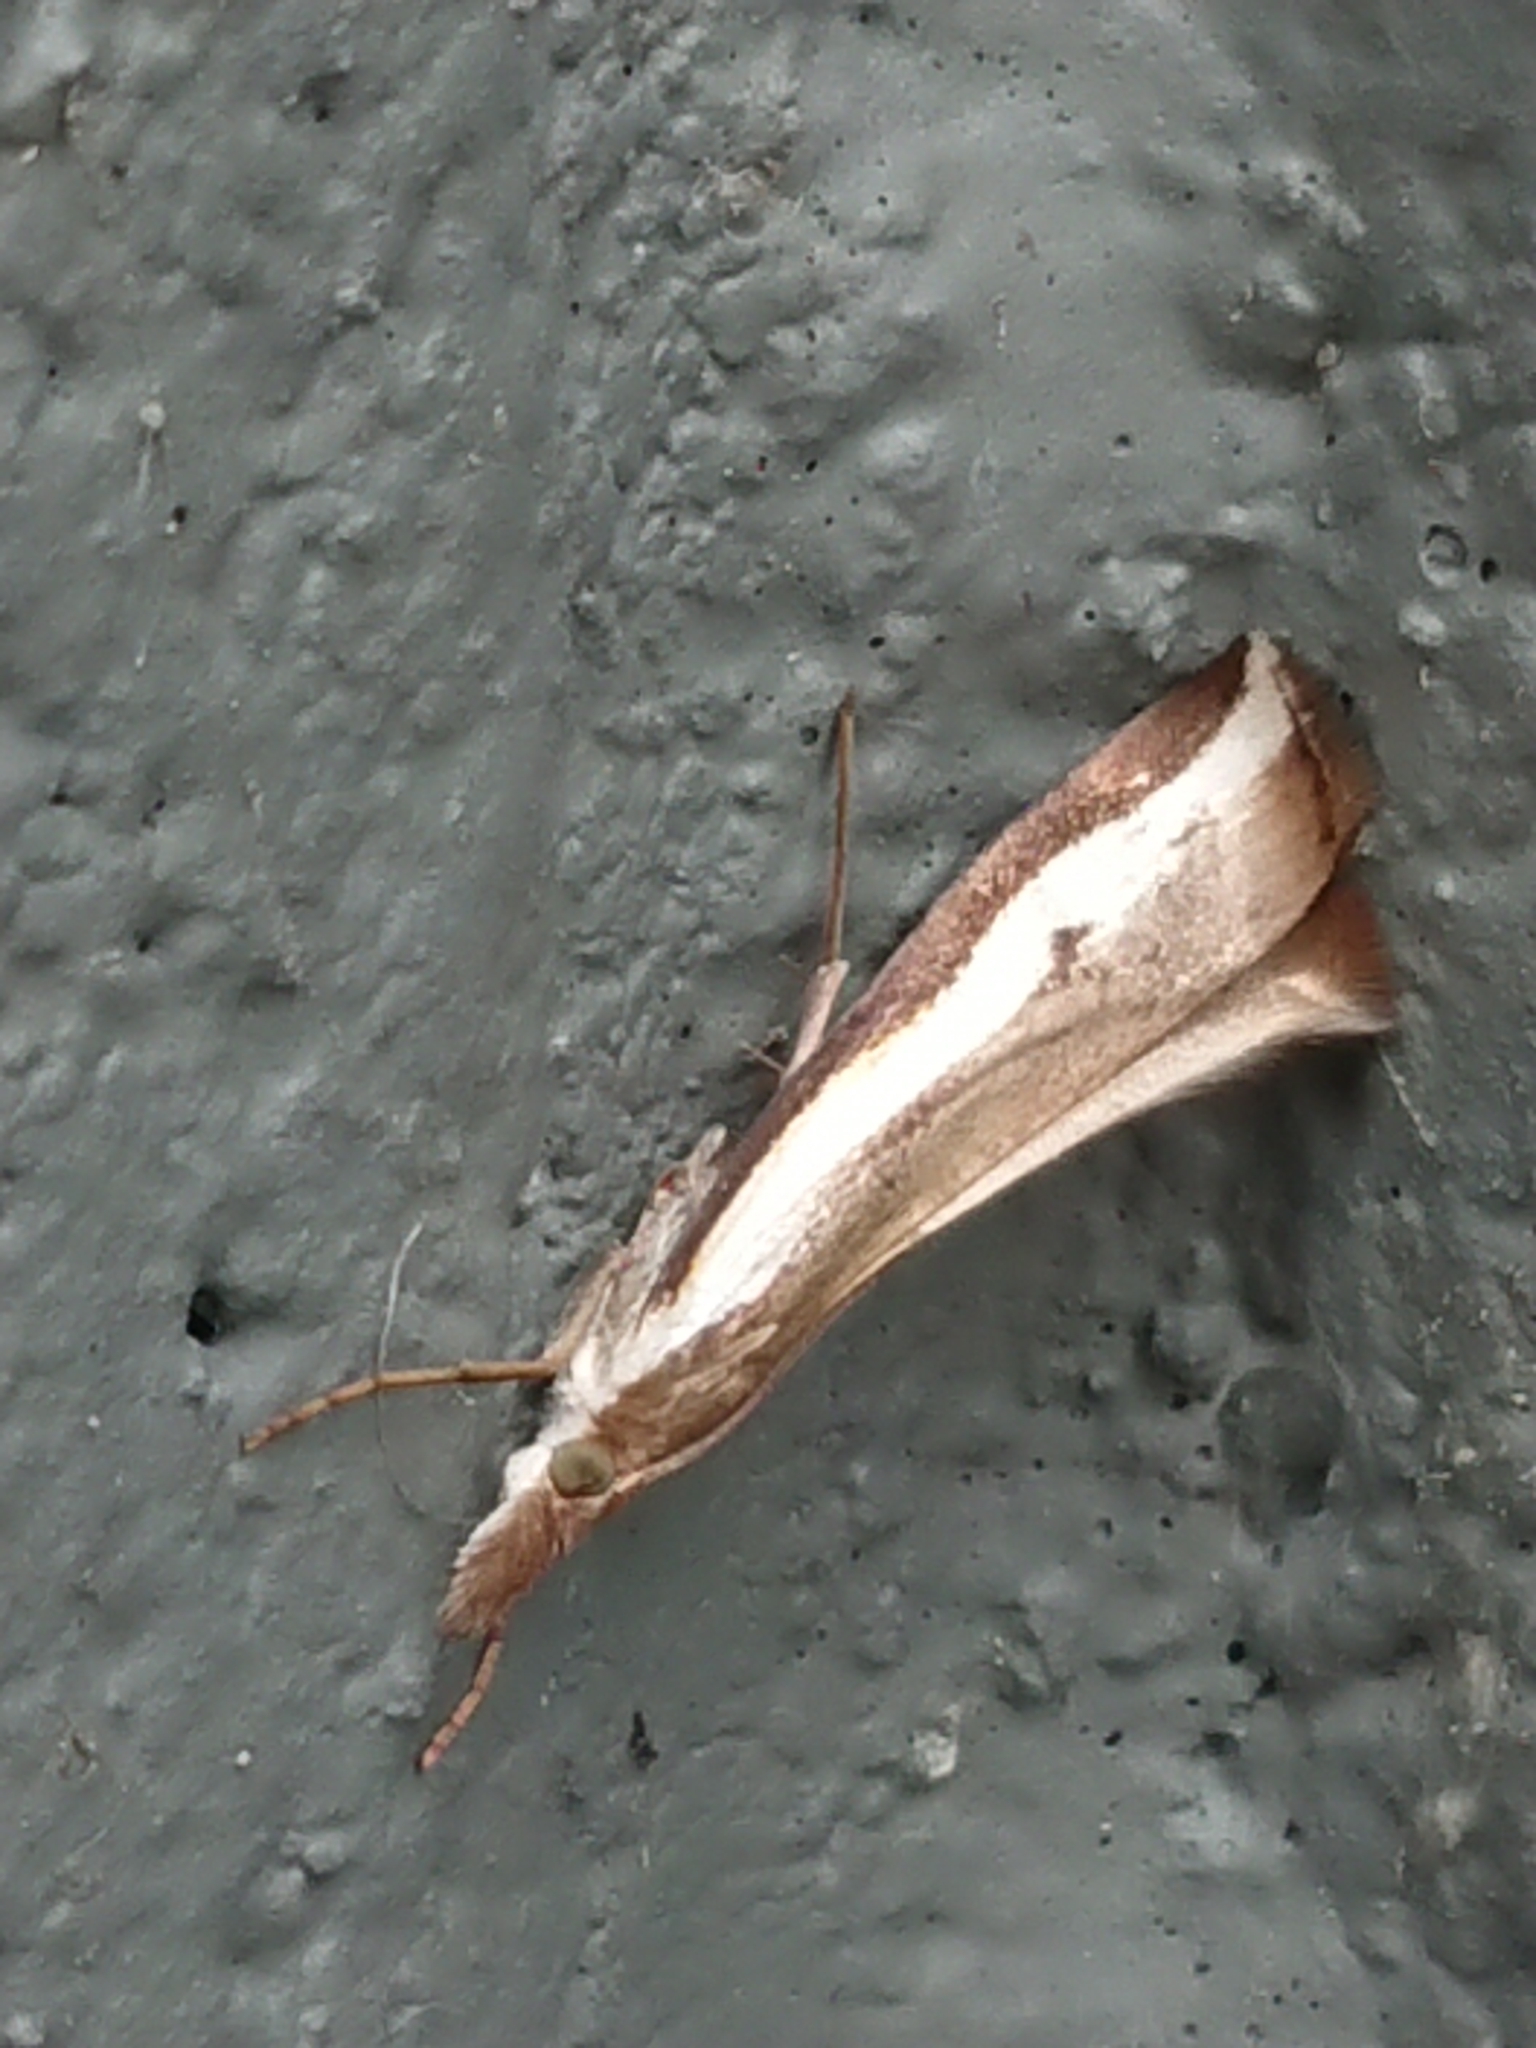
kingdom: Animalia
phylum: Arthropoda
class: Insecta
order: Lepidoptera
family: Crambidae
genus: Orocrambus
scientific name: Orocrambus flexuosellus
